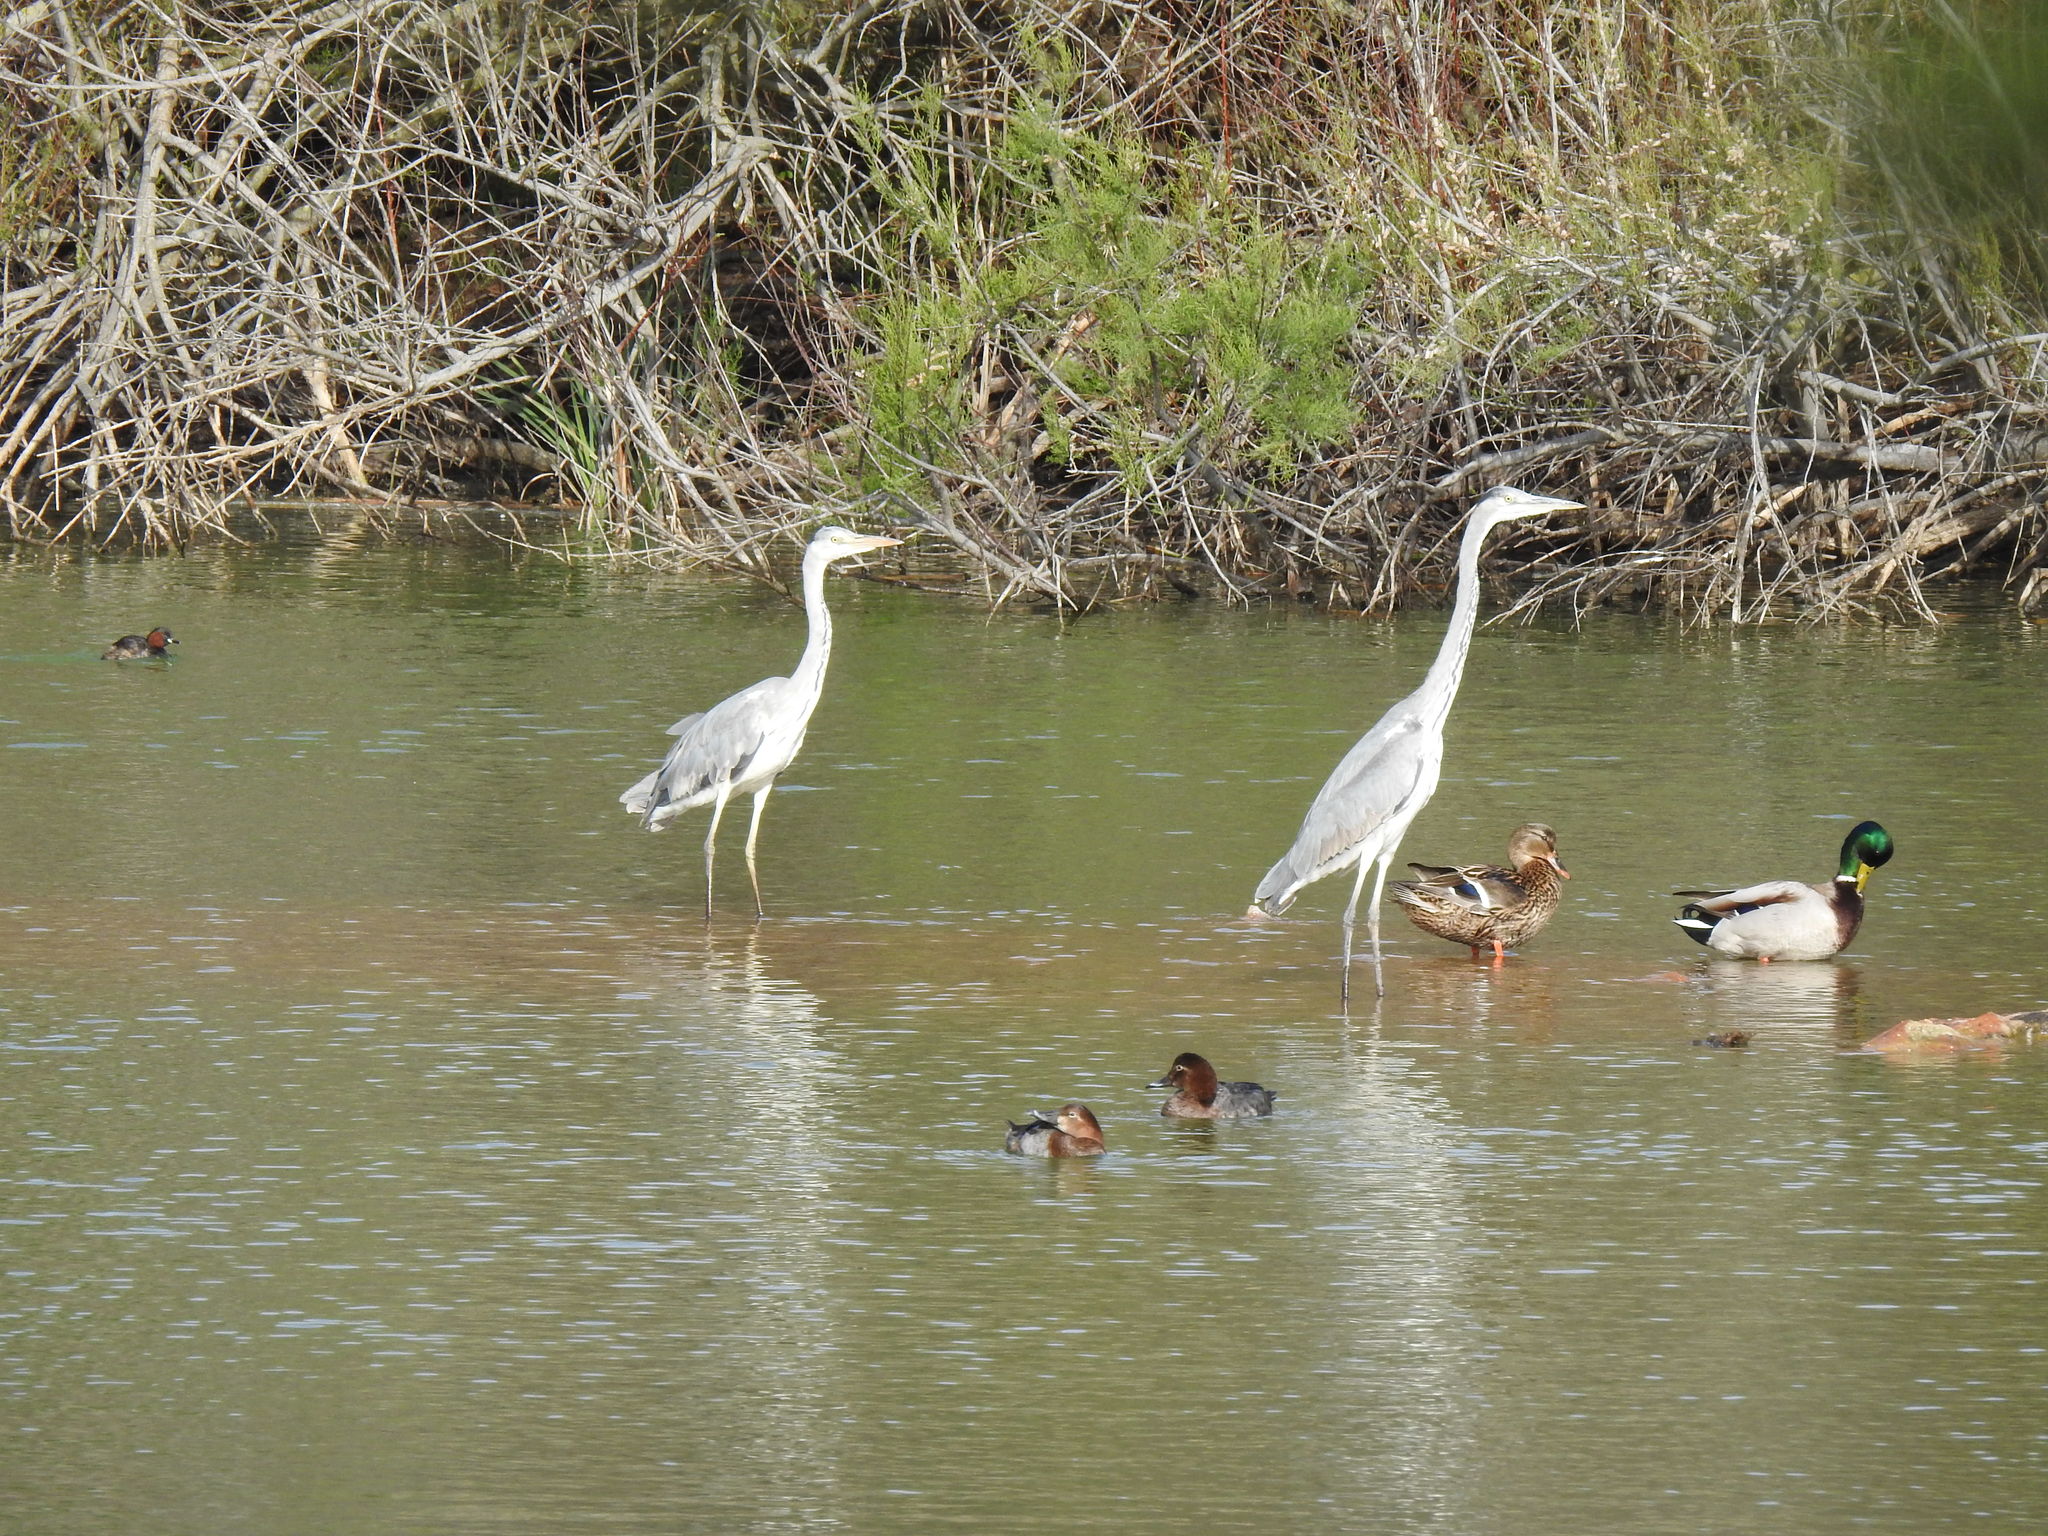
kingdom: Animalia
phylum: Chordata
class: Aves
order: Pelecaniformes
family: Ardeidae
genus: Ardea
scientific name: Ardea cinerea
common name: Grey heron
